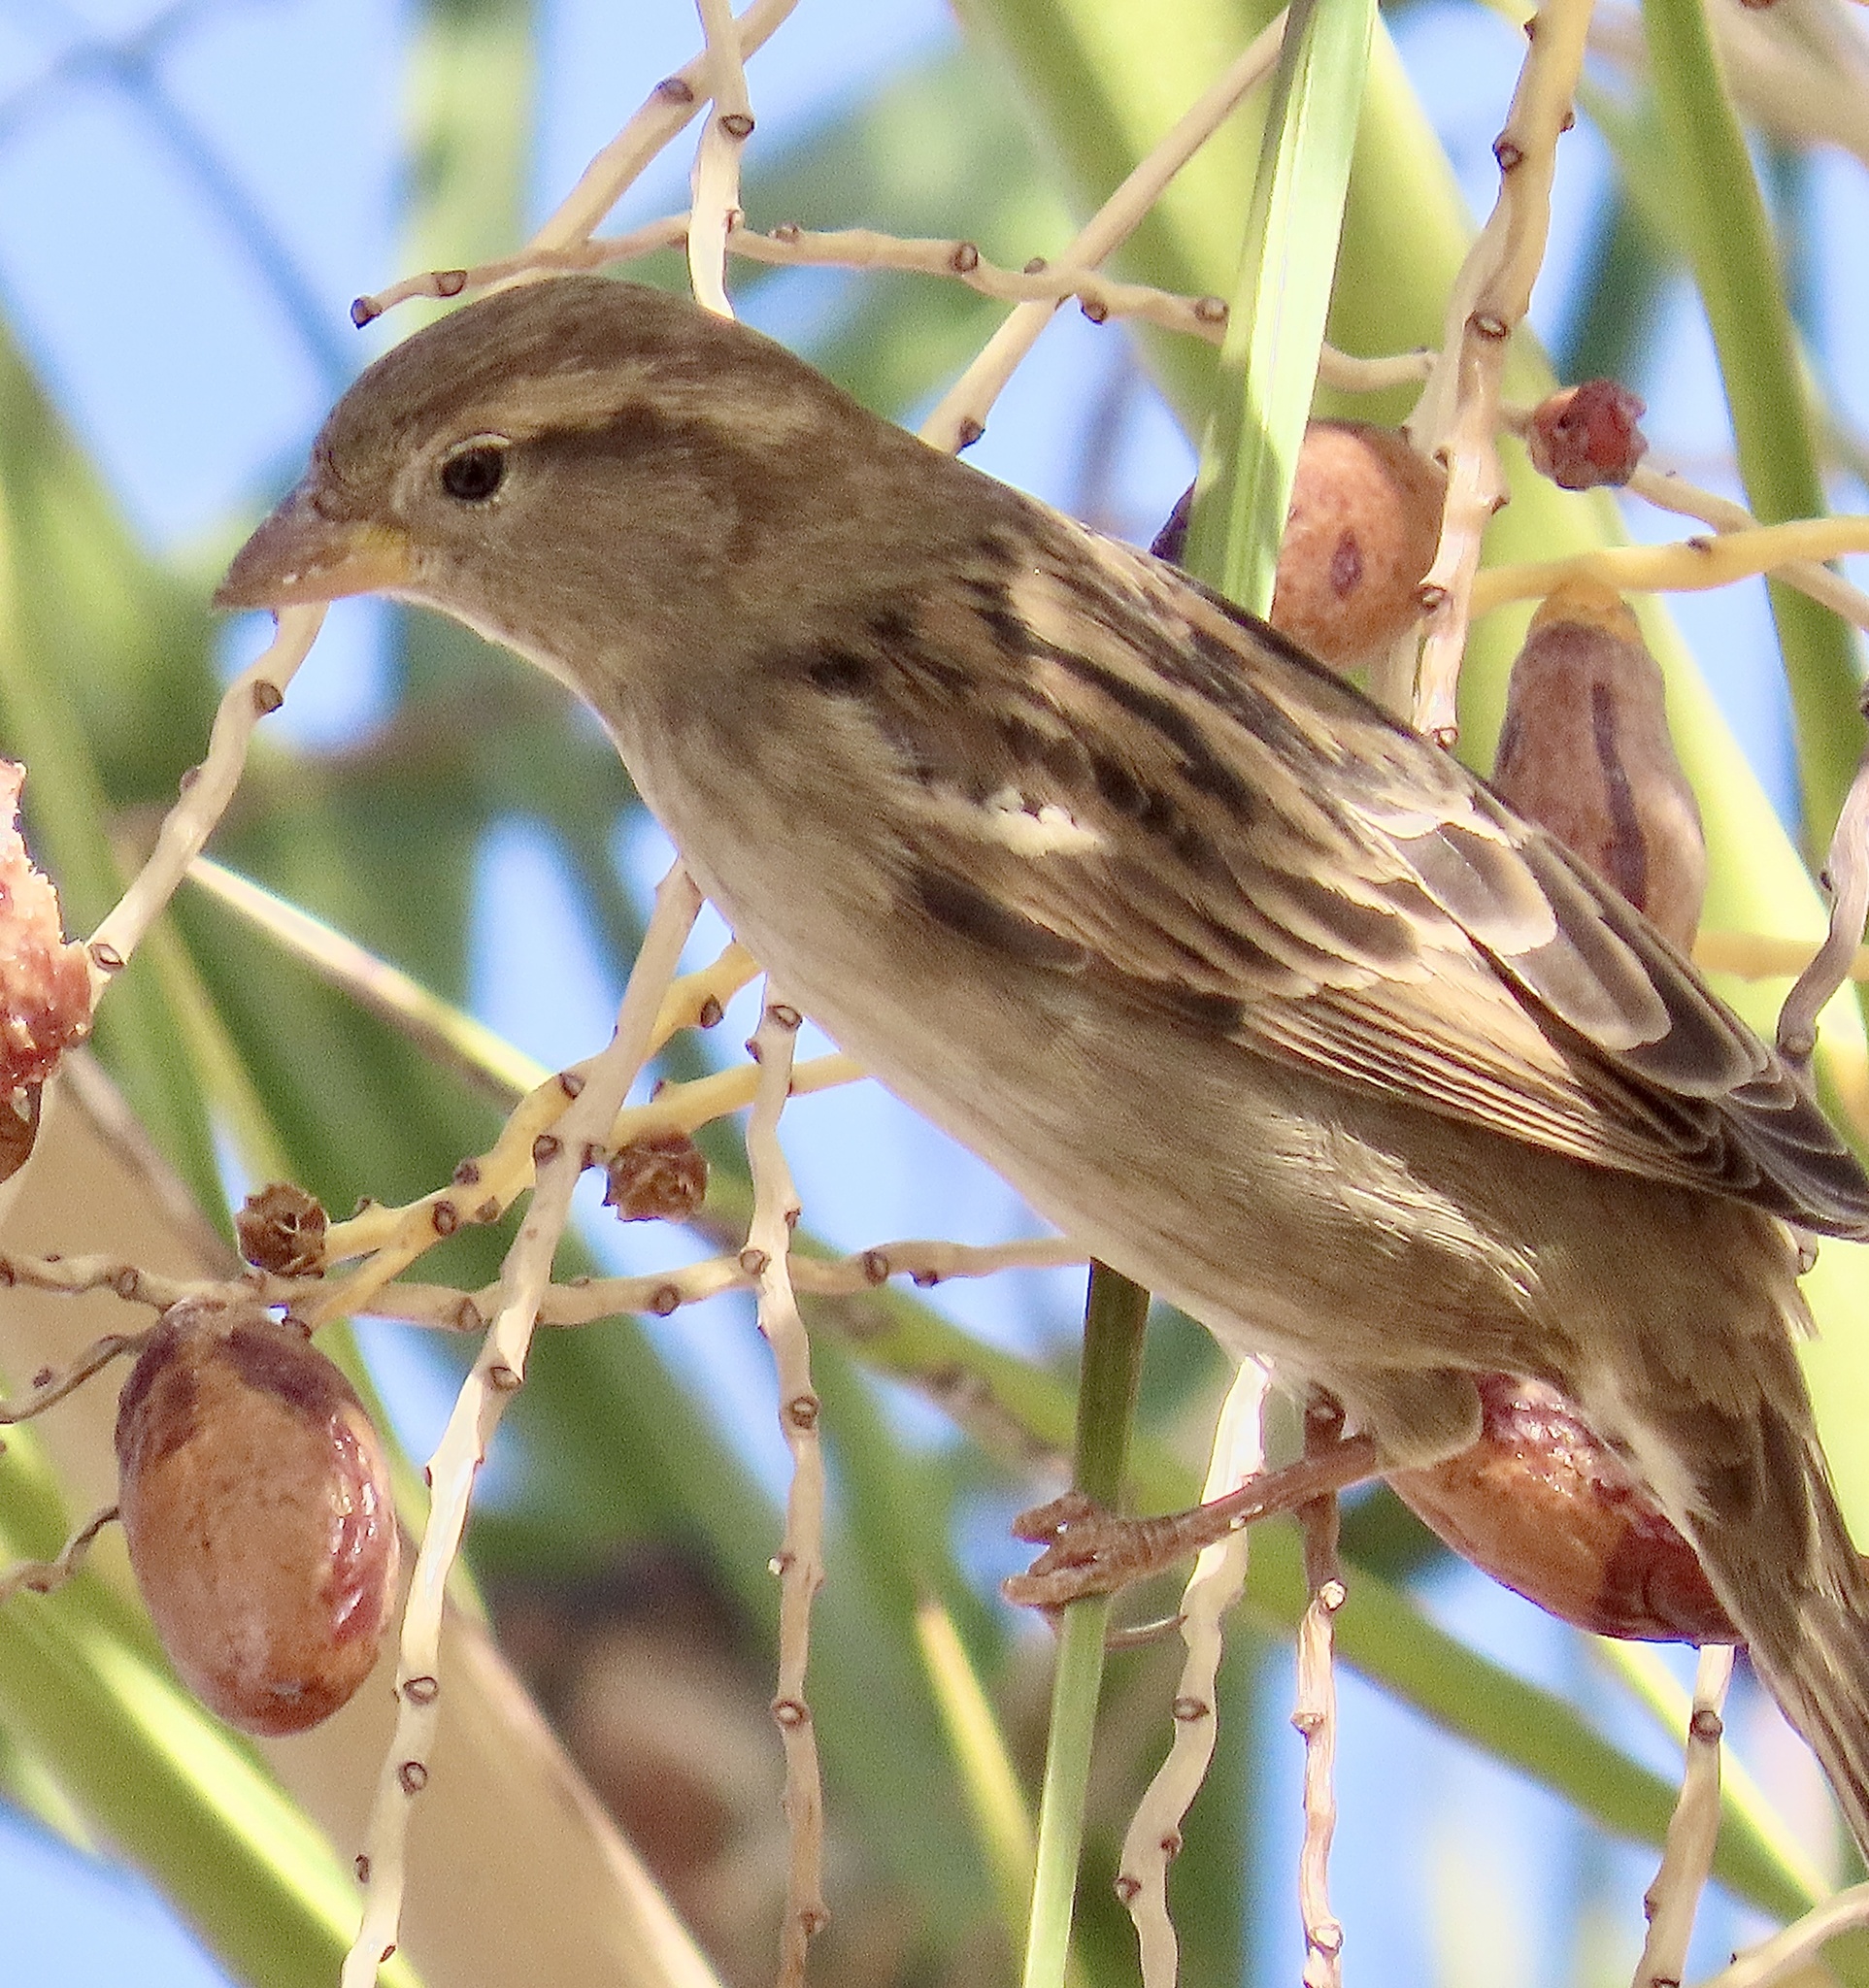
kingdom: Animalia
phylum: Chordata
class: Aves
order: Passeriformes
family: Passeridae
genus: Passer
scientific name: Passer domesticus
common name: House sparrow
